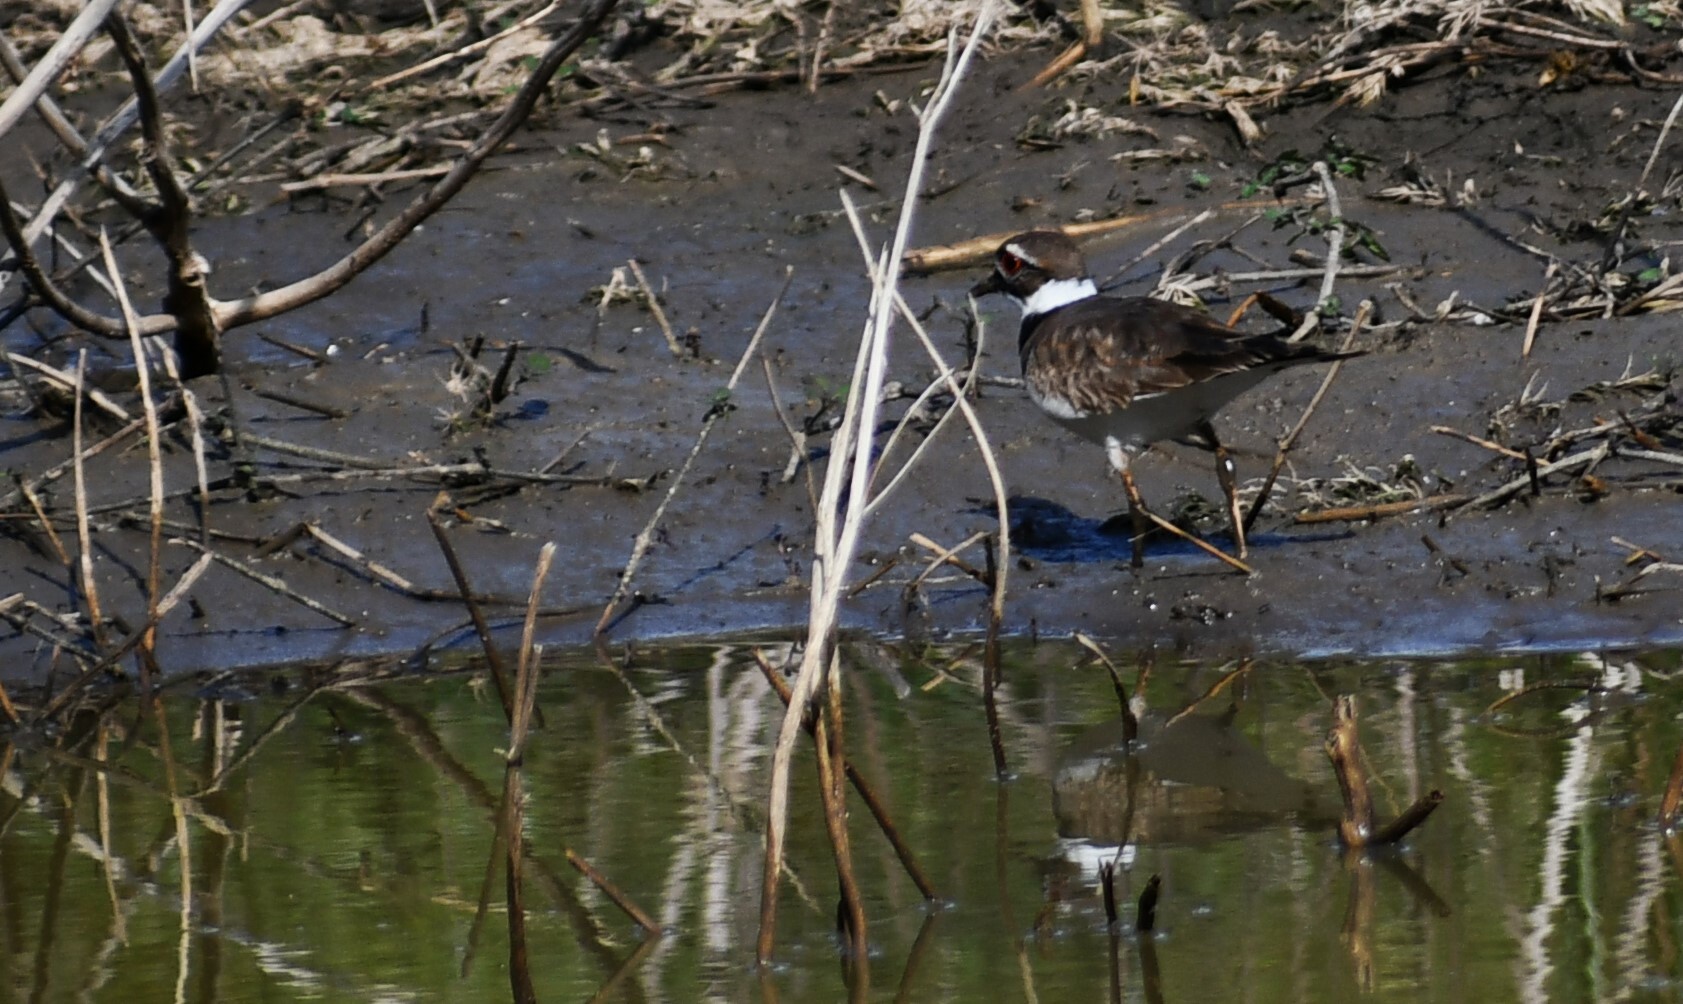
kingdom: Animalia
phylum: Chordata
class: Aves
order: Charadriiformes
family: Charadriidae
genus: Charadrius
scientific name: Charadrius vociferus
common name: Killdeer
